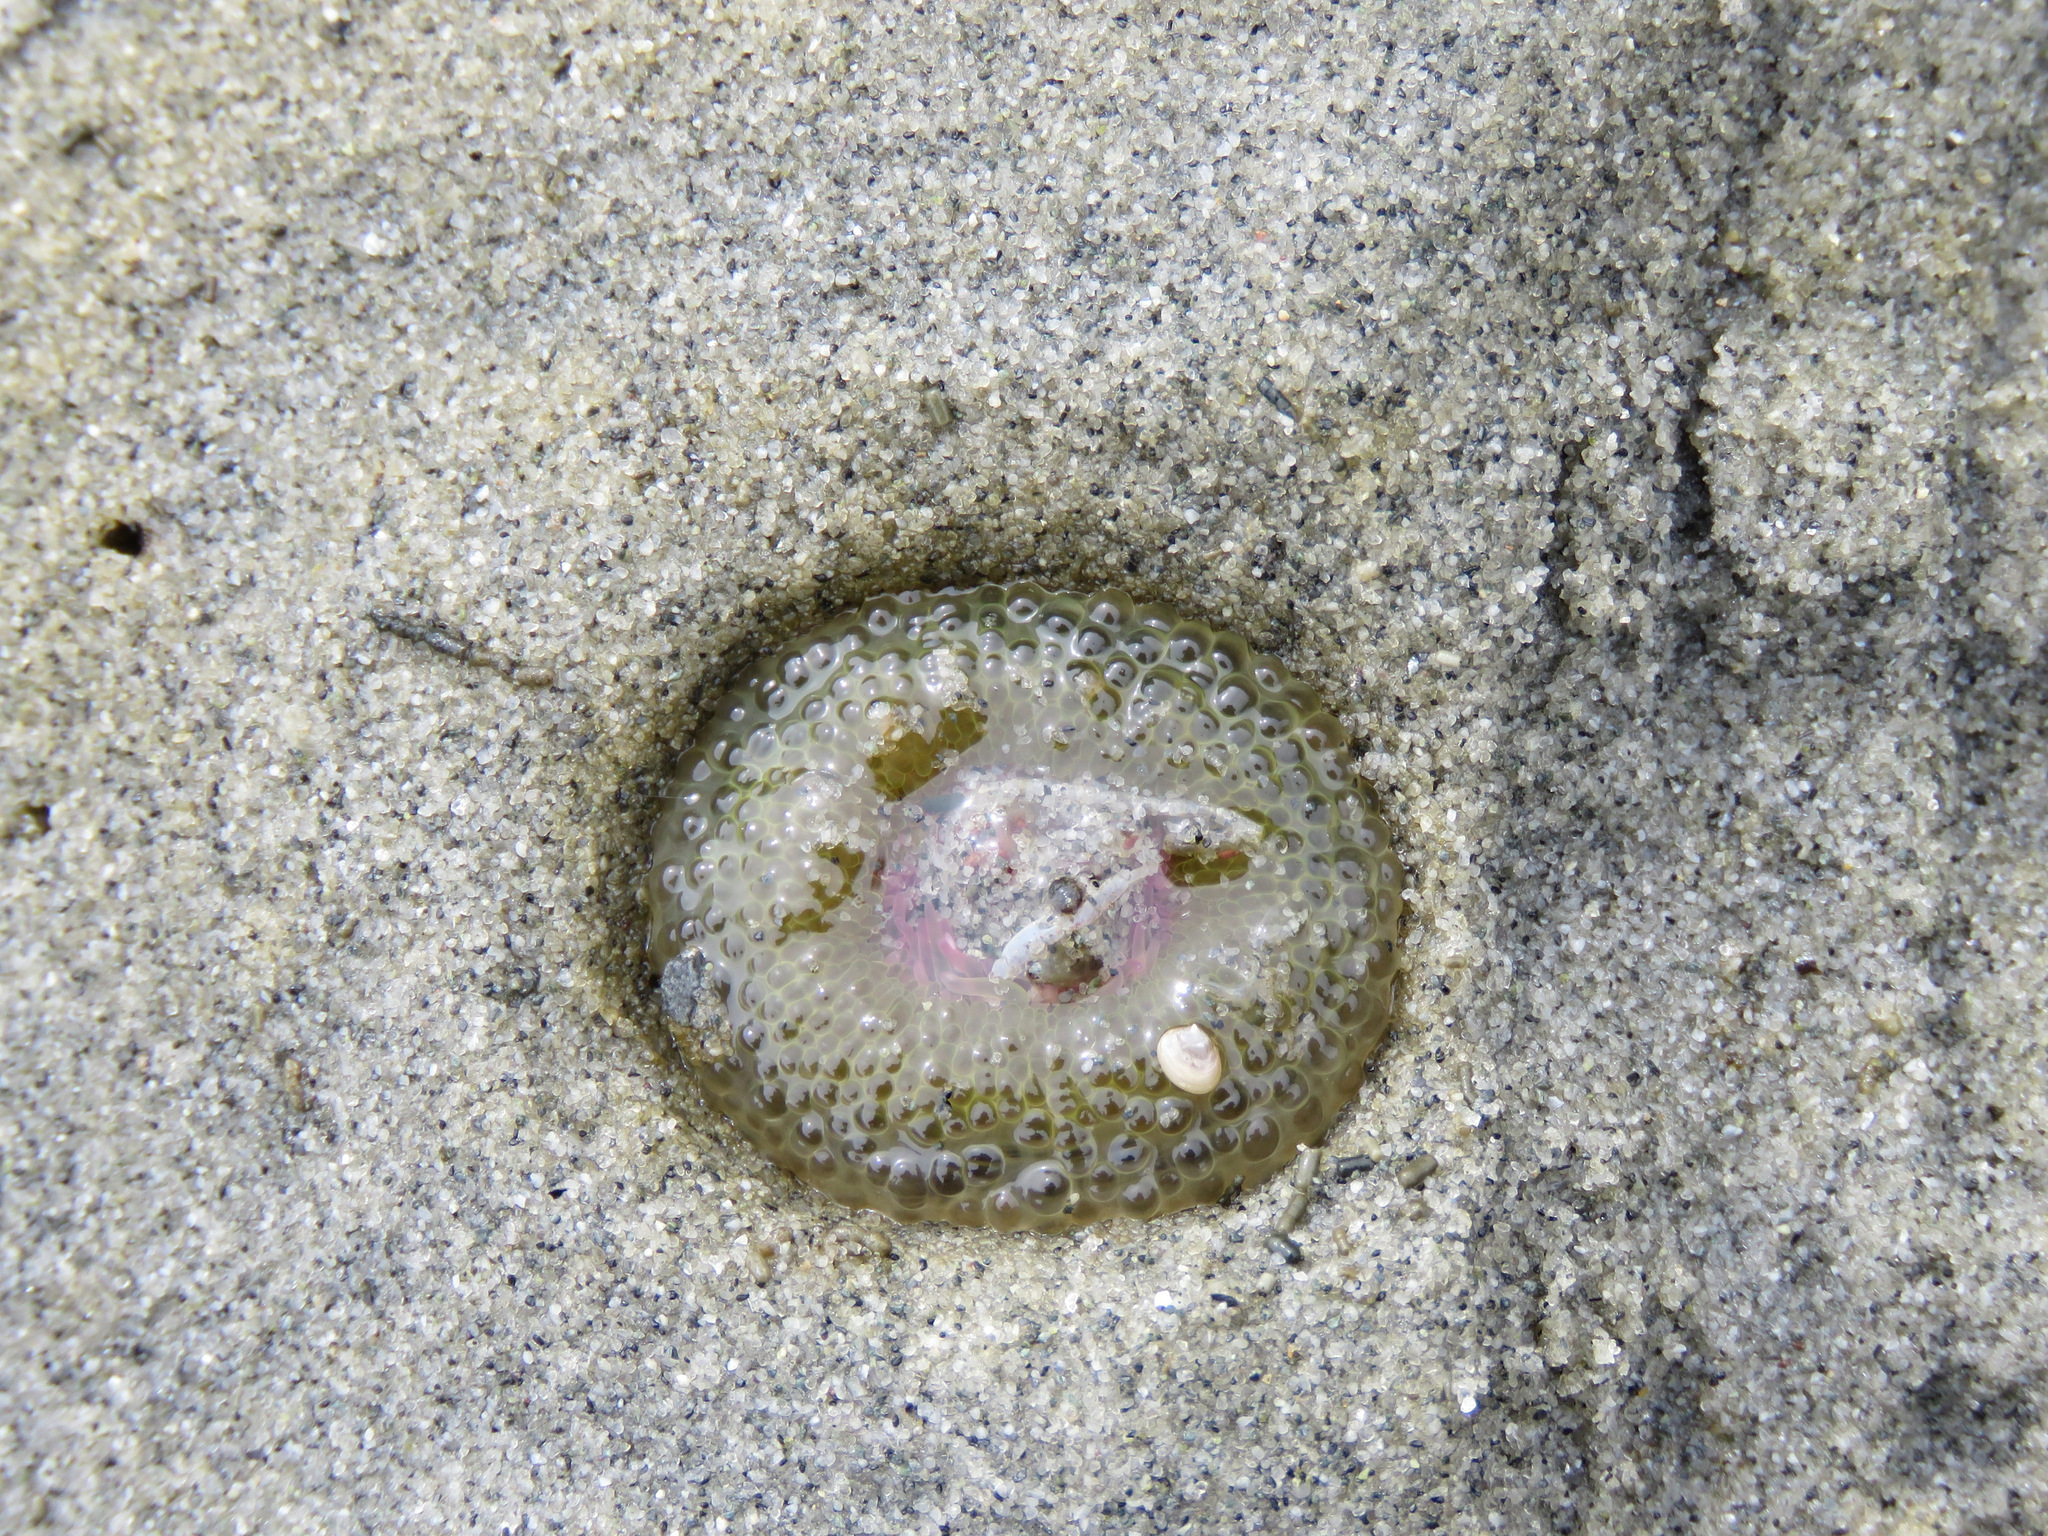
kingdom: Animalia
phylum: Cnidaria
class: Anthozoa
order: Actiniaria
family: Actiniidae
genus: Anthopleura
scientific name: Anthopleura elegantissima
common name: Clonal anemone
